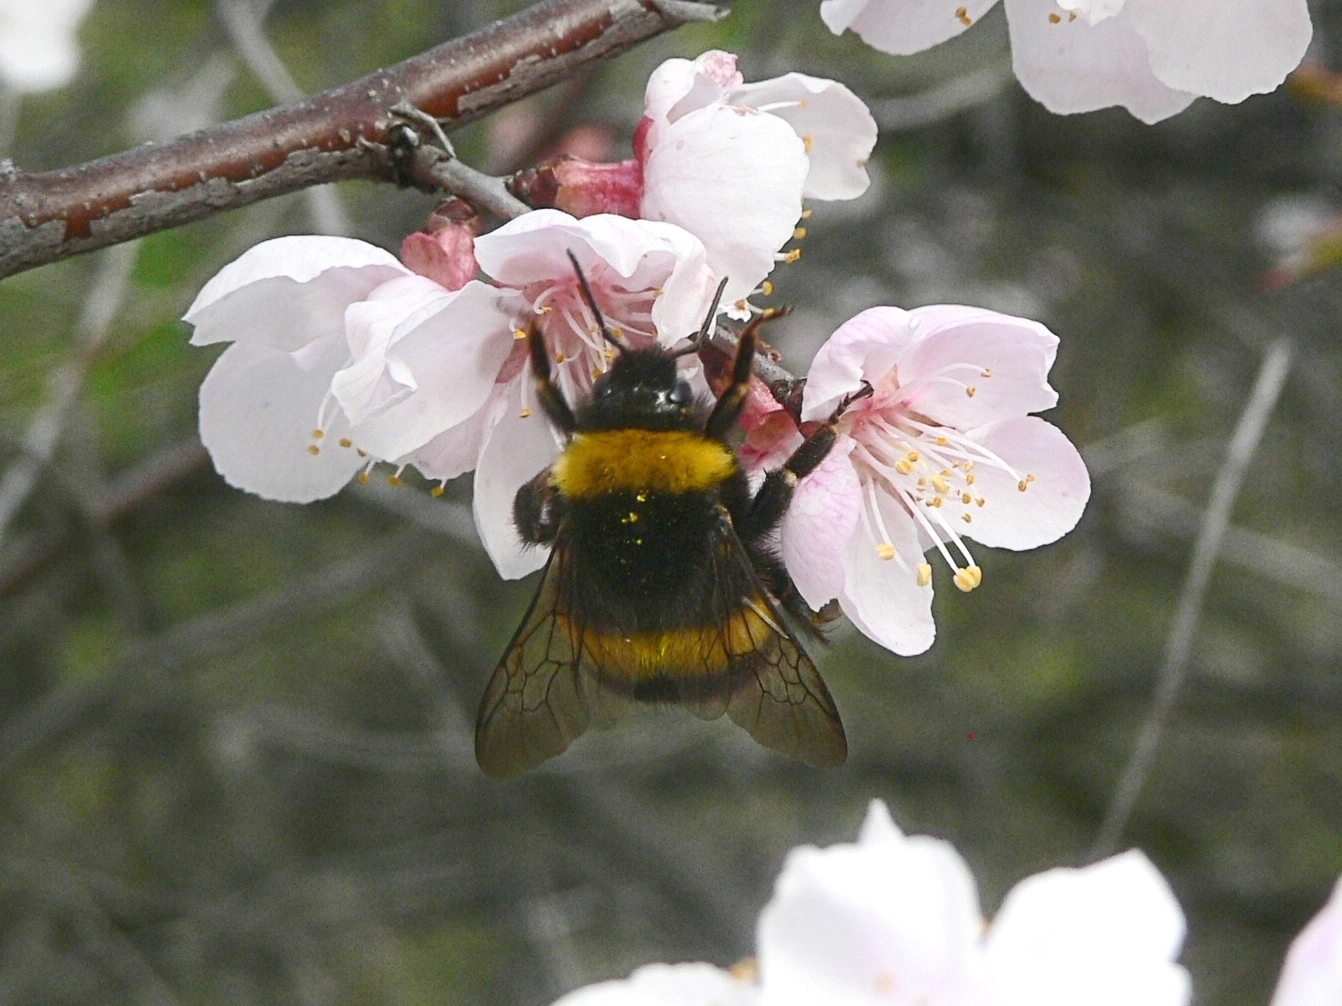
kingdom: Animalia
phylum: Arthropoda
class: Insecta
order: Hymenoptera
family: Apidae
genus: Bombus
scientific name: Bombus
